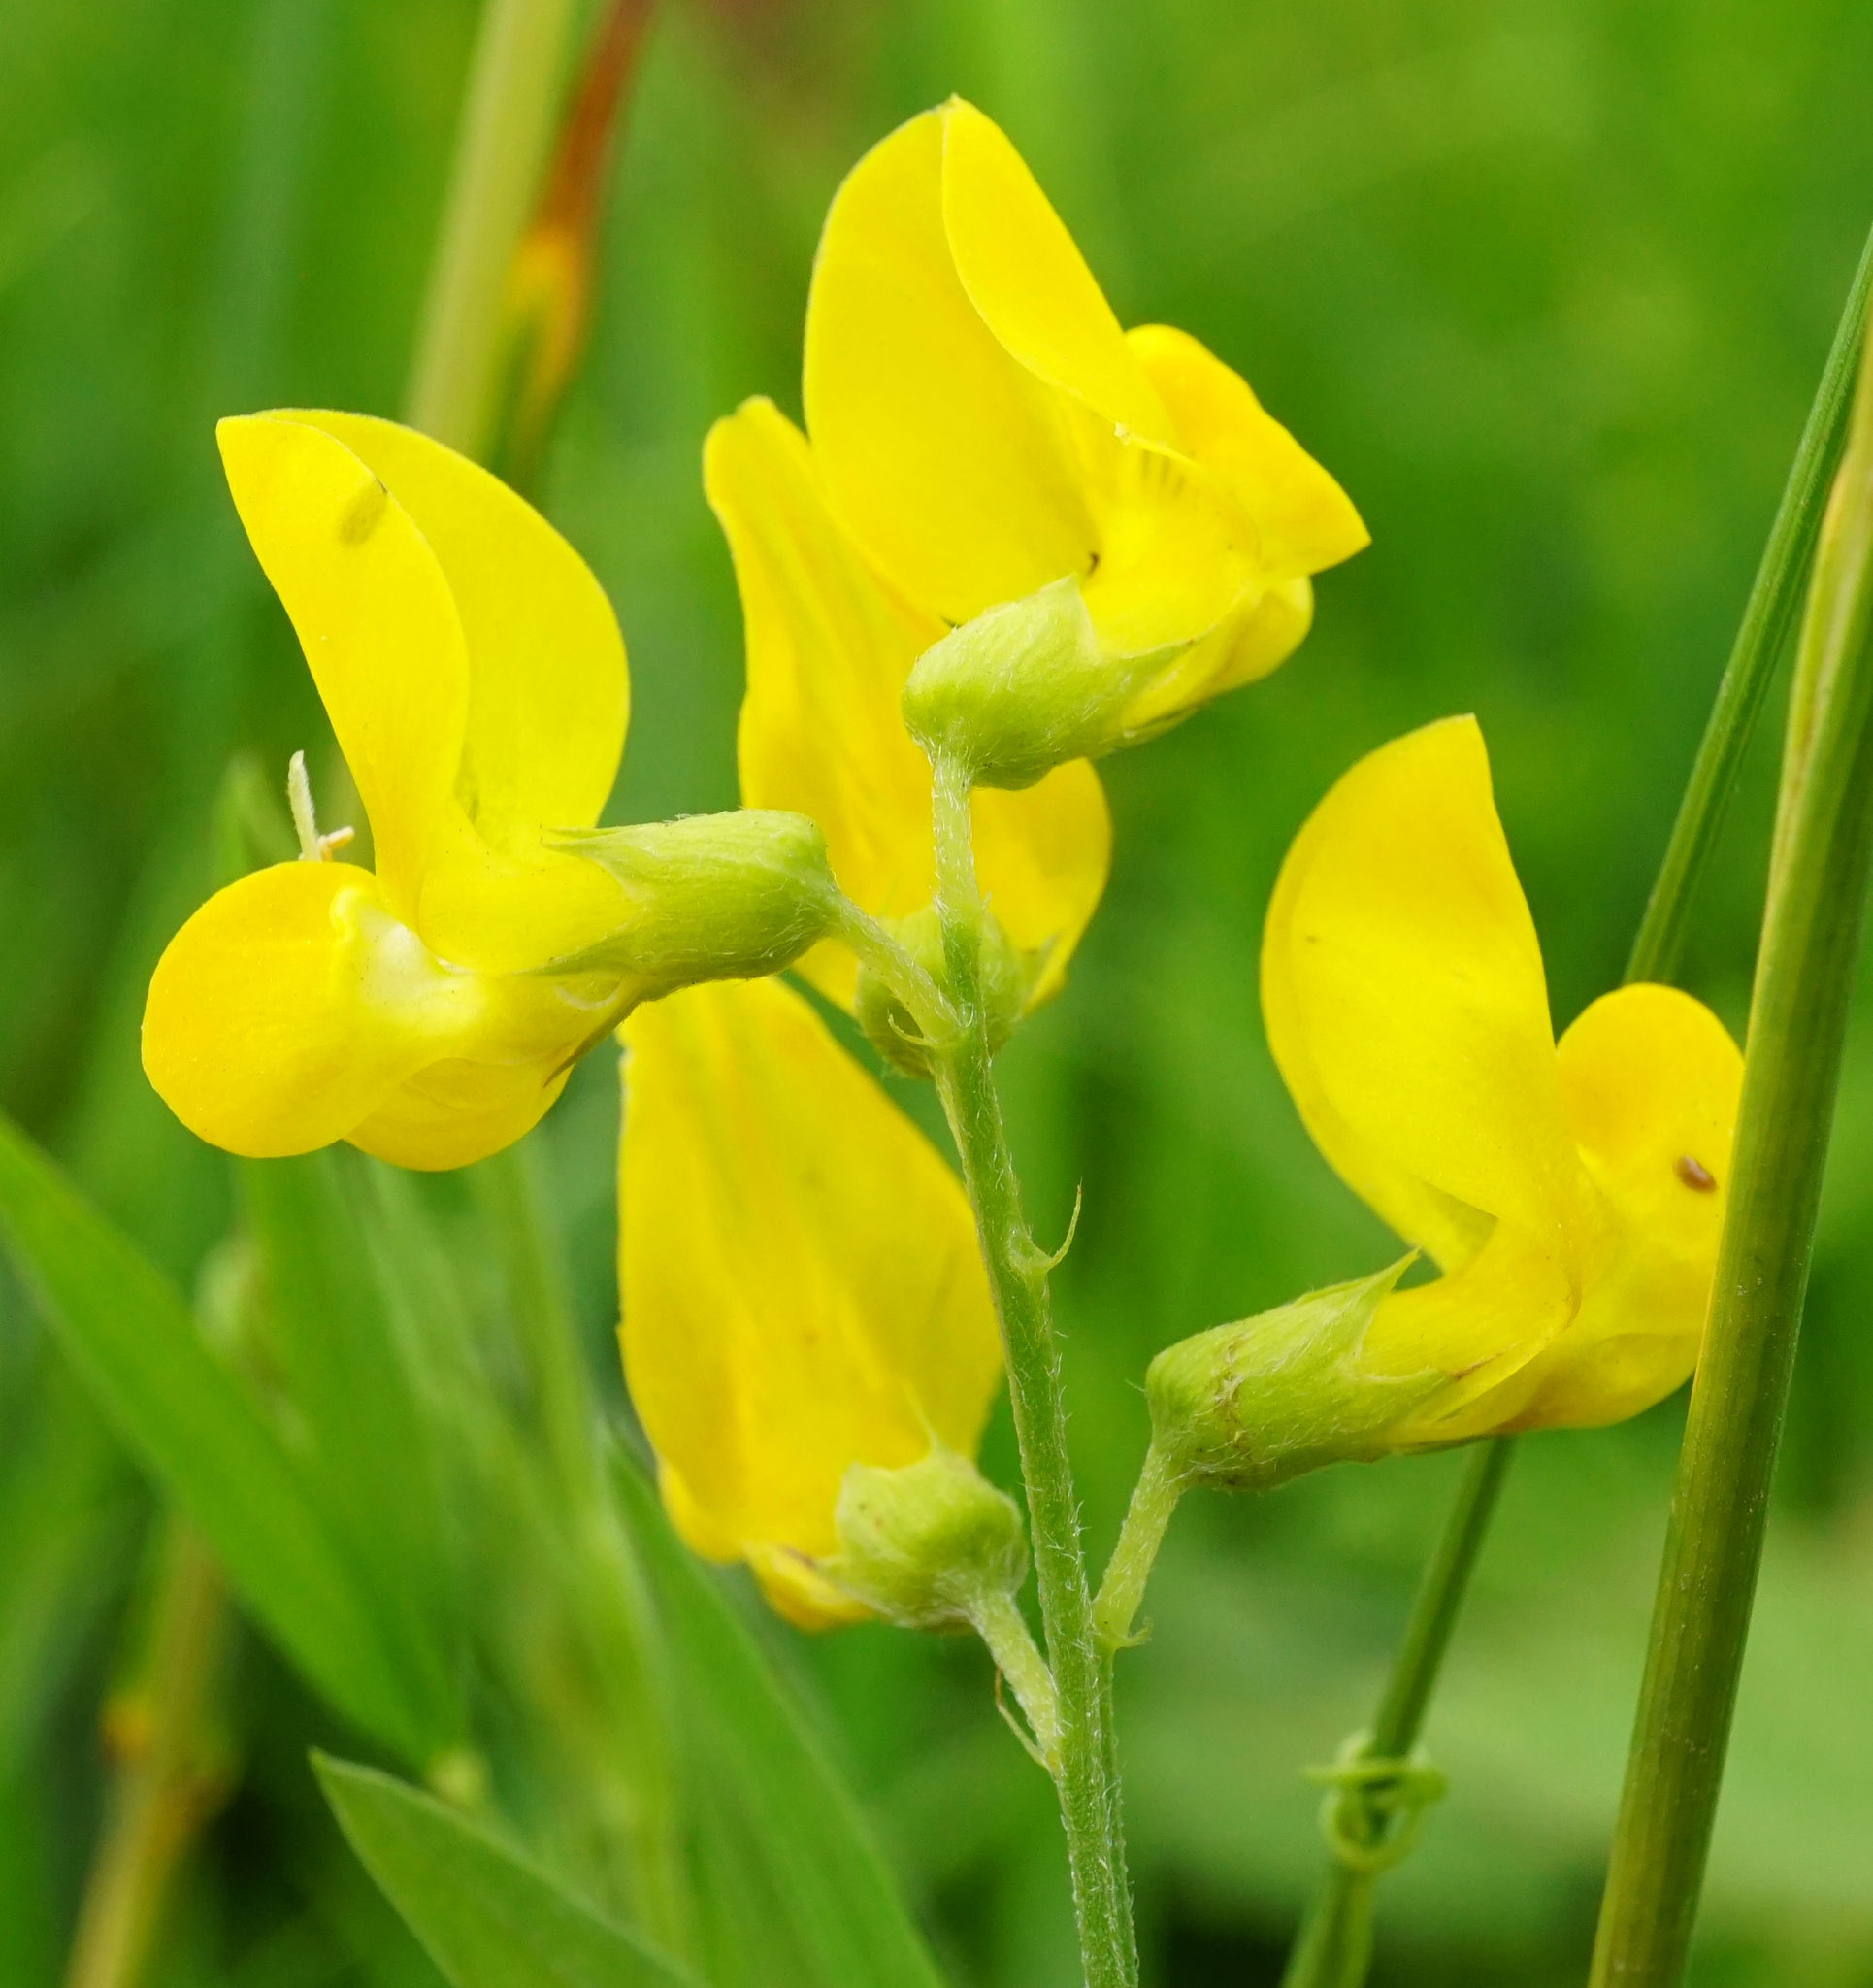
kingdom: Plantae
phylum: Tracheophyta
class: Magnoliopsida
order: Fabales
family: Fabaceae
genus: Lathyrus
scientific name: Lathyrus pratensis
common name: Meadow vetchling
